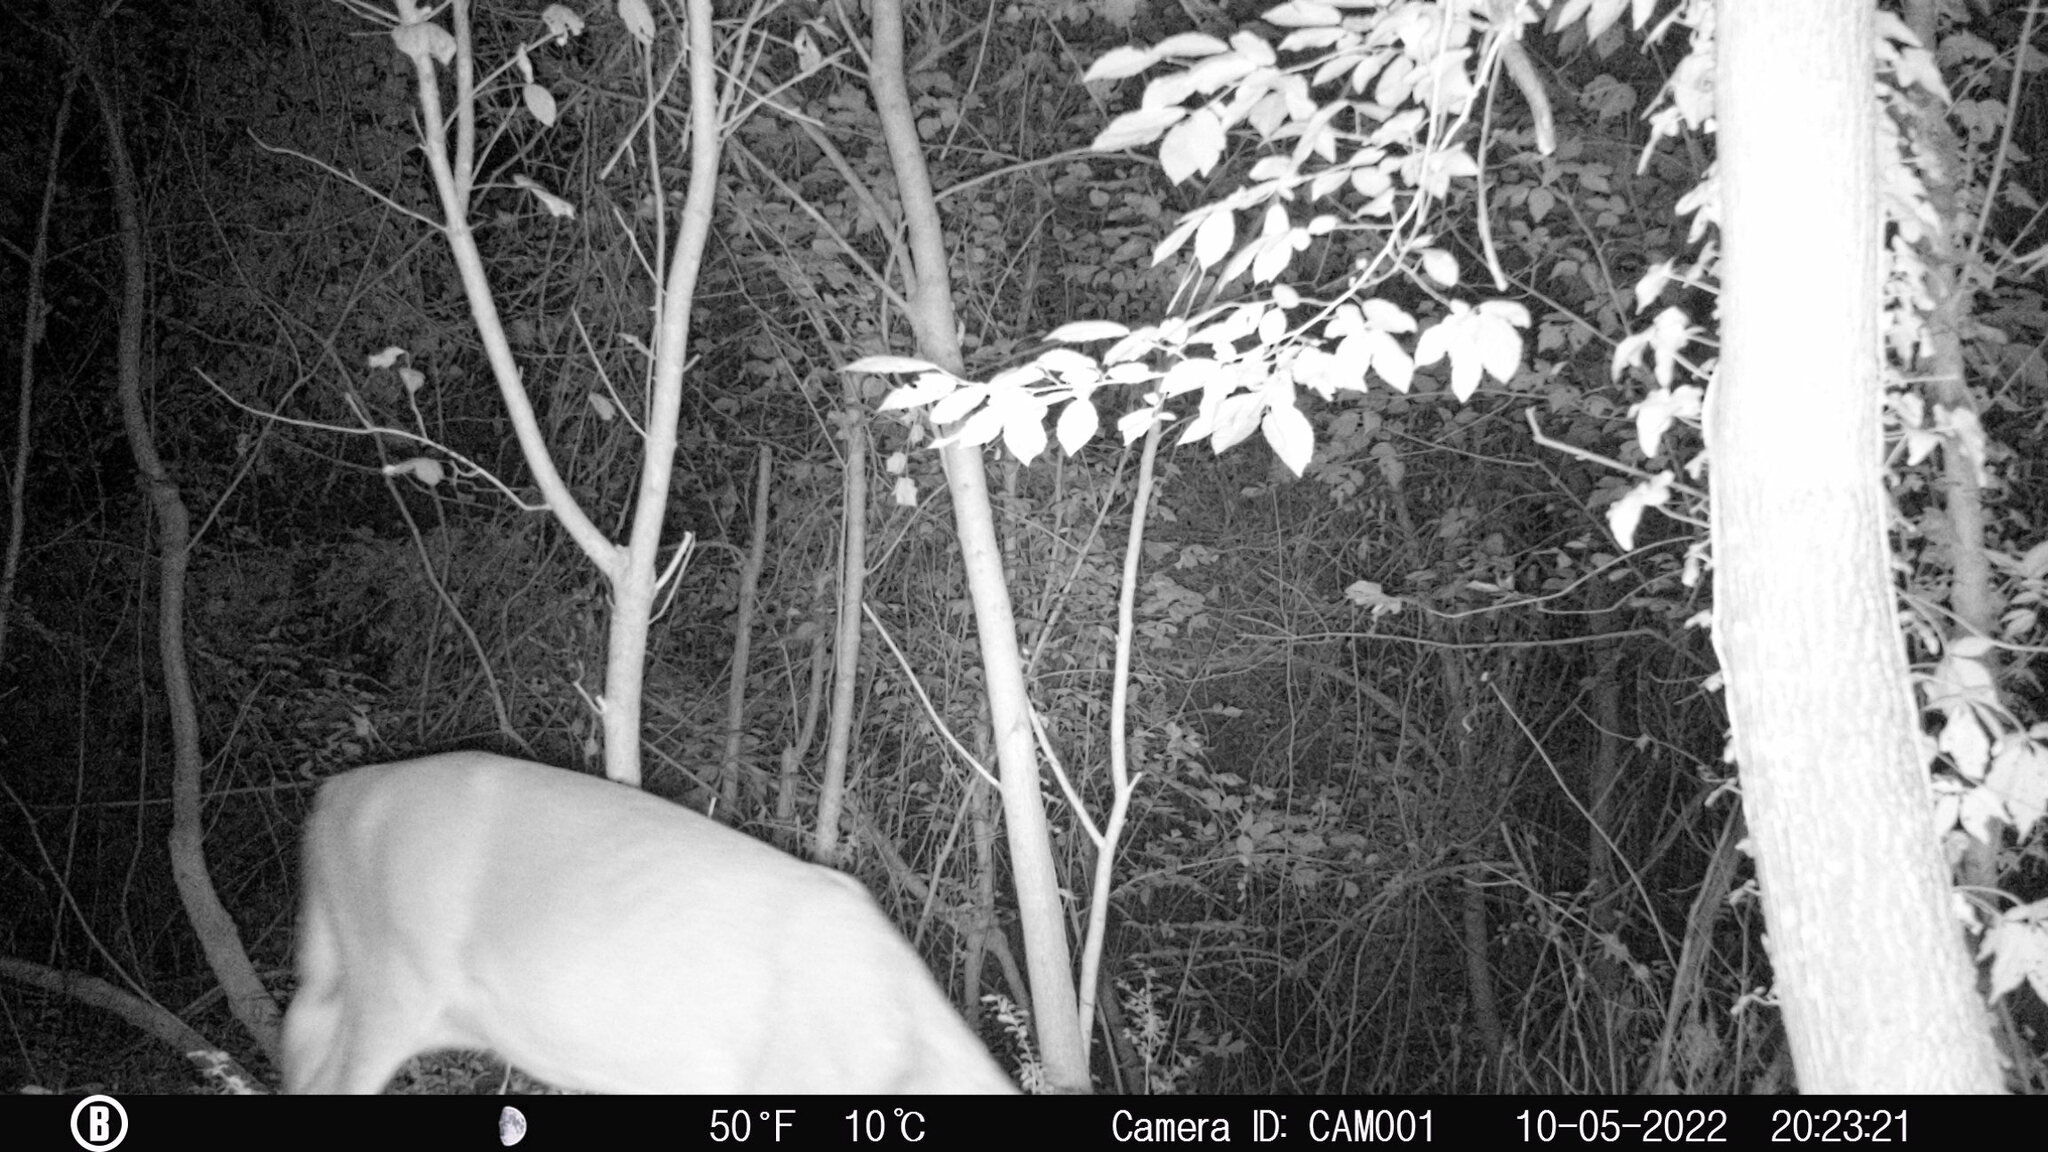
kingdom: Animalia
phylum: Chordata
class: Mammalia
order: Artiodactyla
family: Cervidae
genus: Odocoileus
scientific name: Odocoileus virginianus
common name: White-tailed deer
